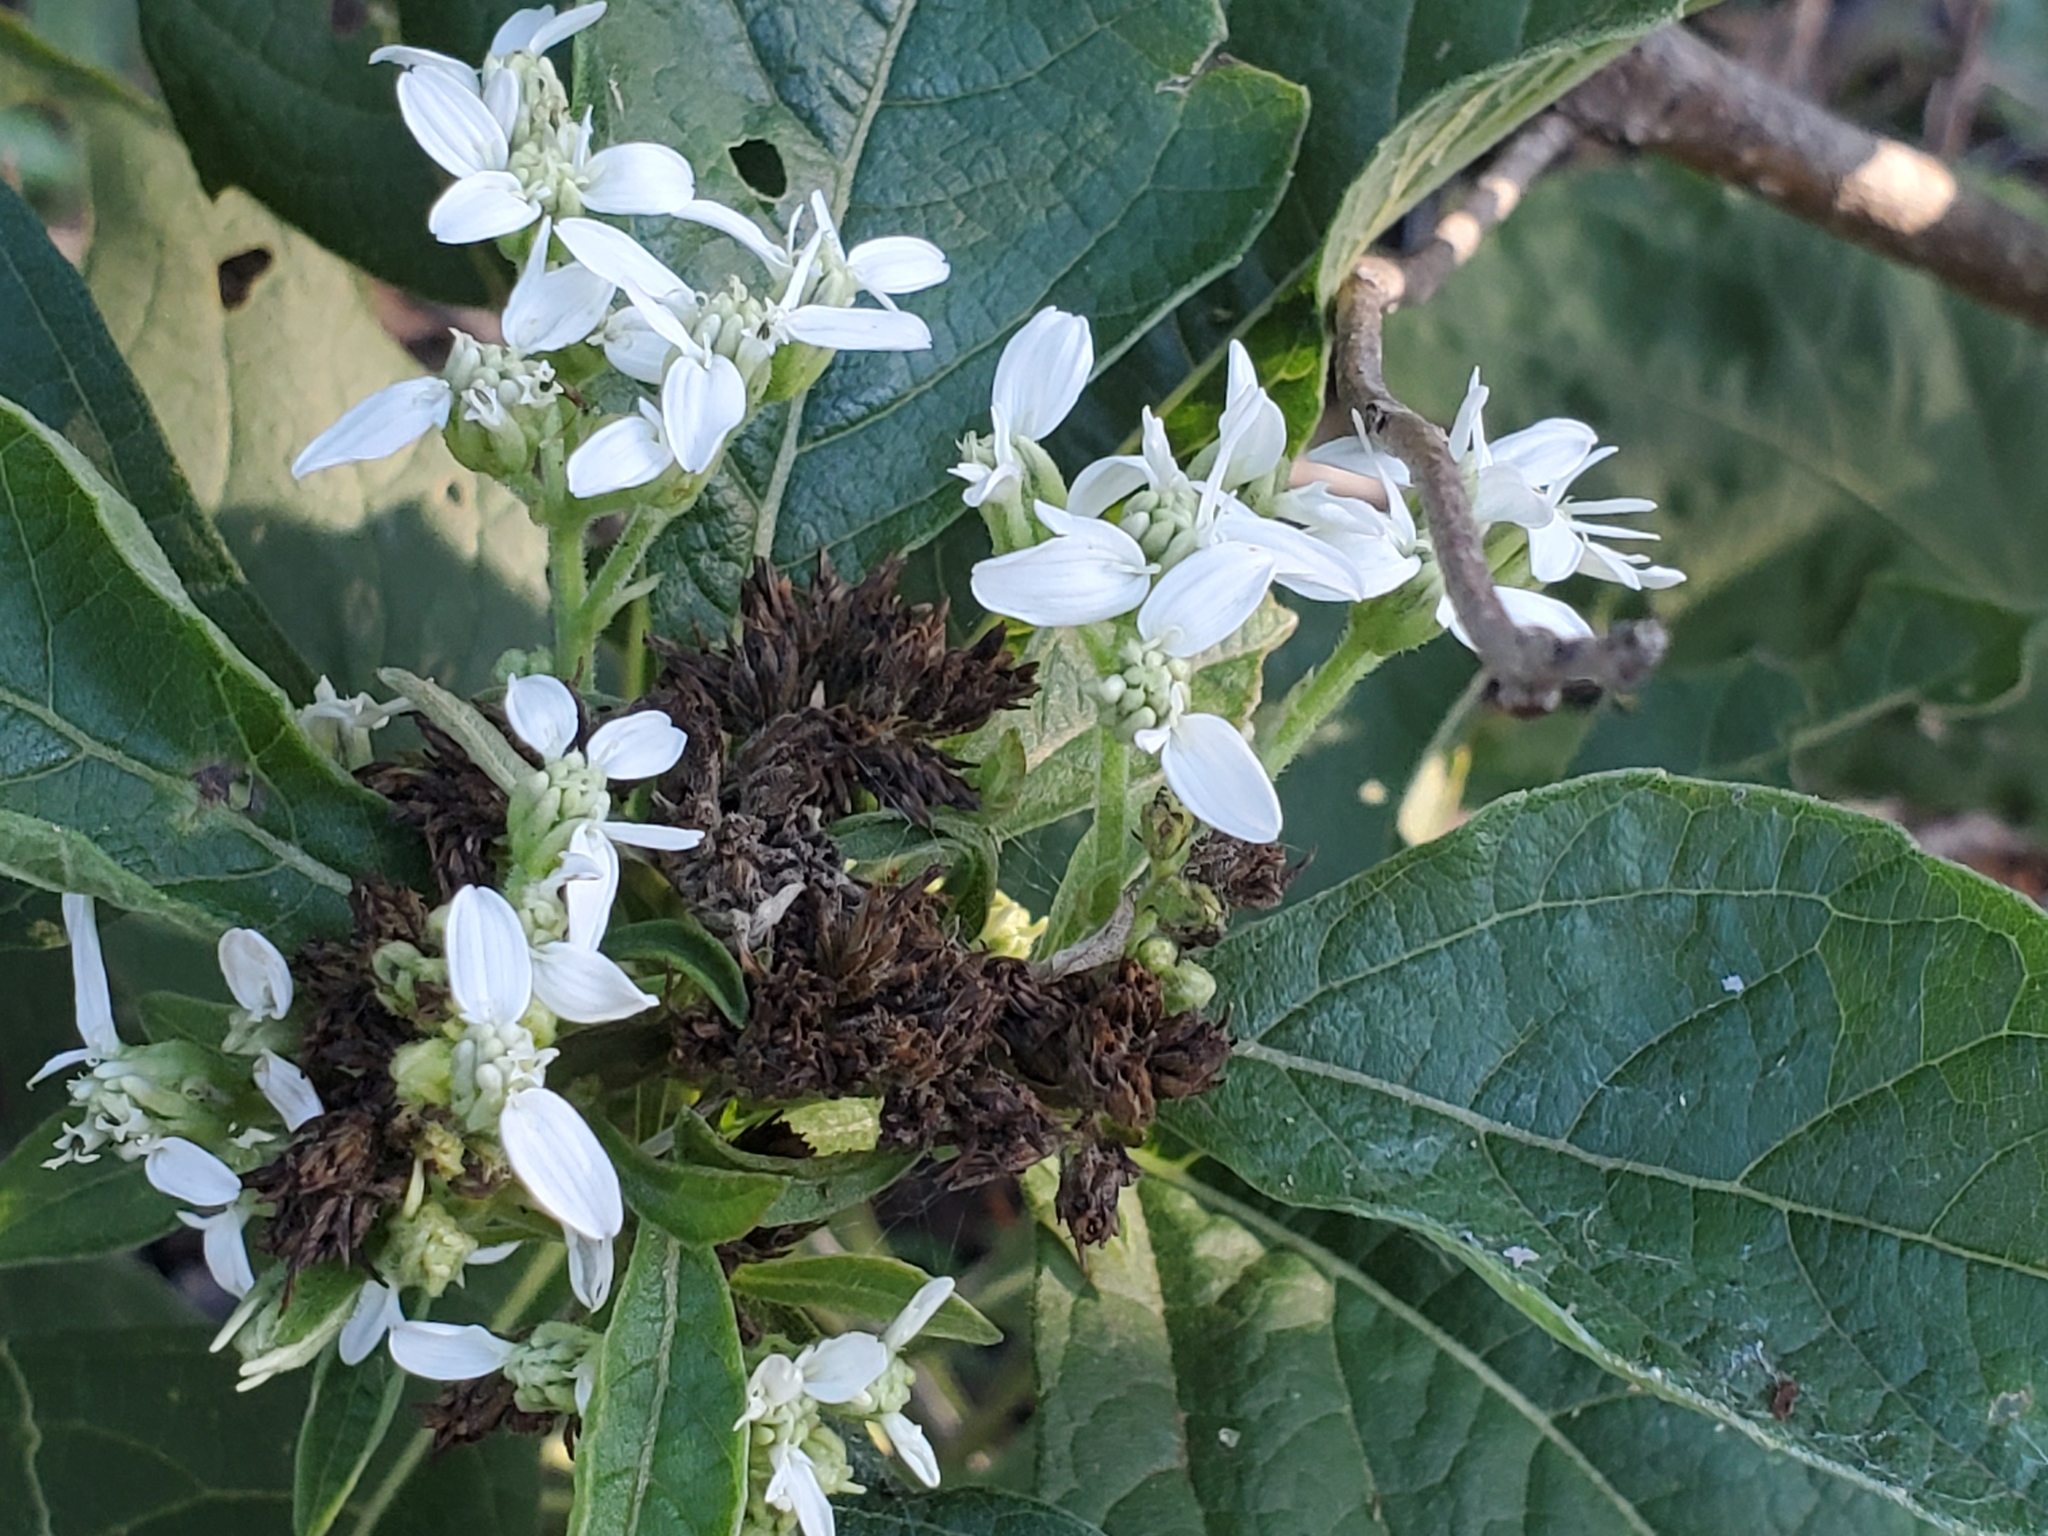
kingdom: Plantae
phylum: Tracheophyta
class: Magnoliopsida
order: Asterales
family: Asteraceae
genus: Verbesina
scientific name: Verbesina virginica
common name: Frostweed
